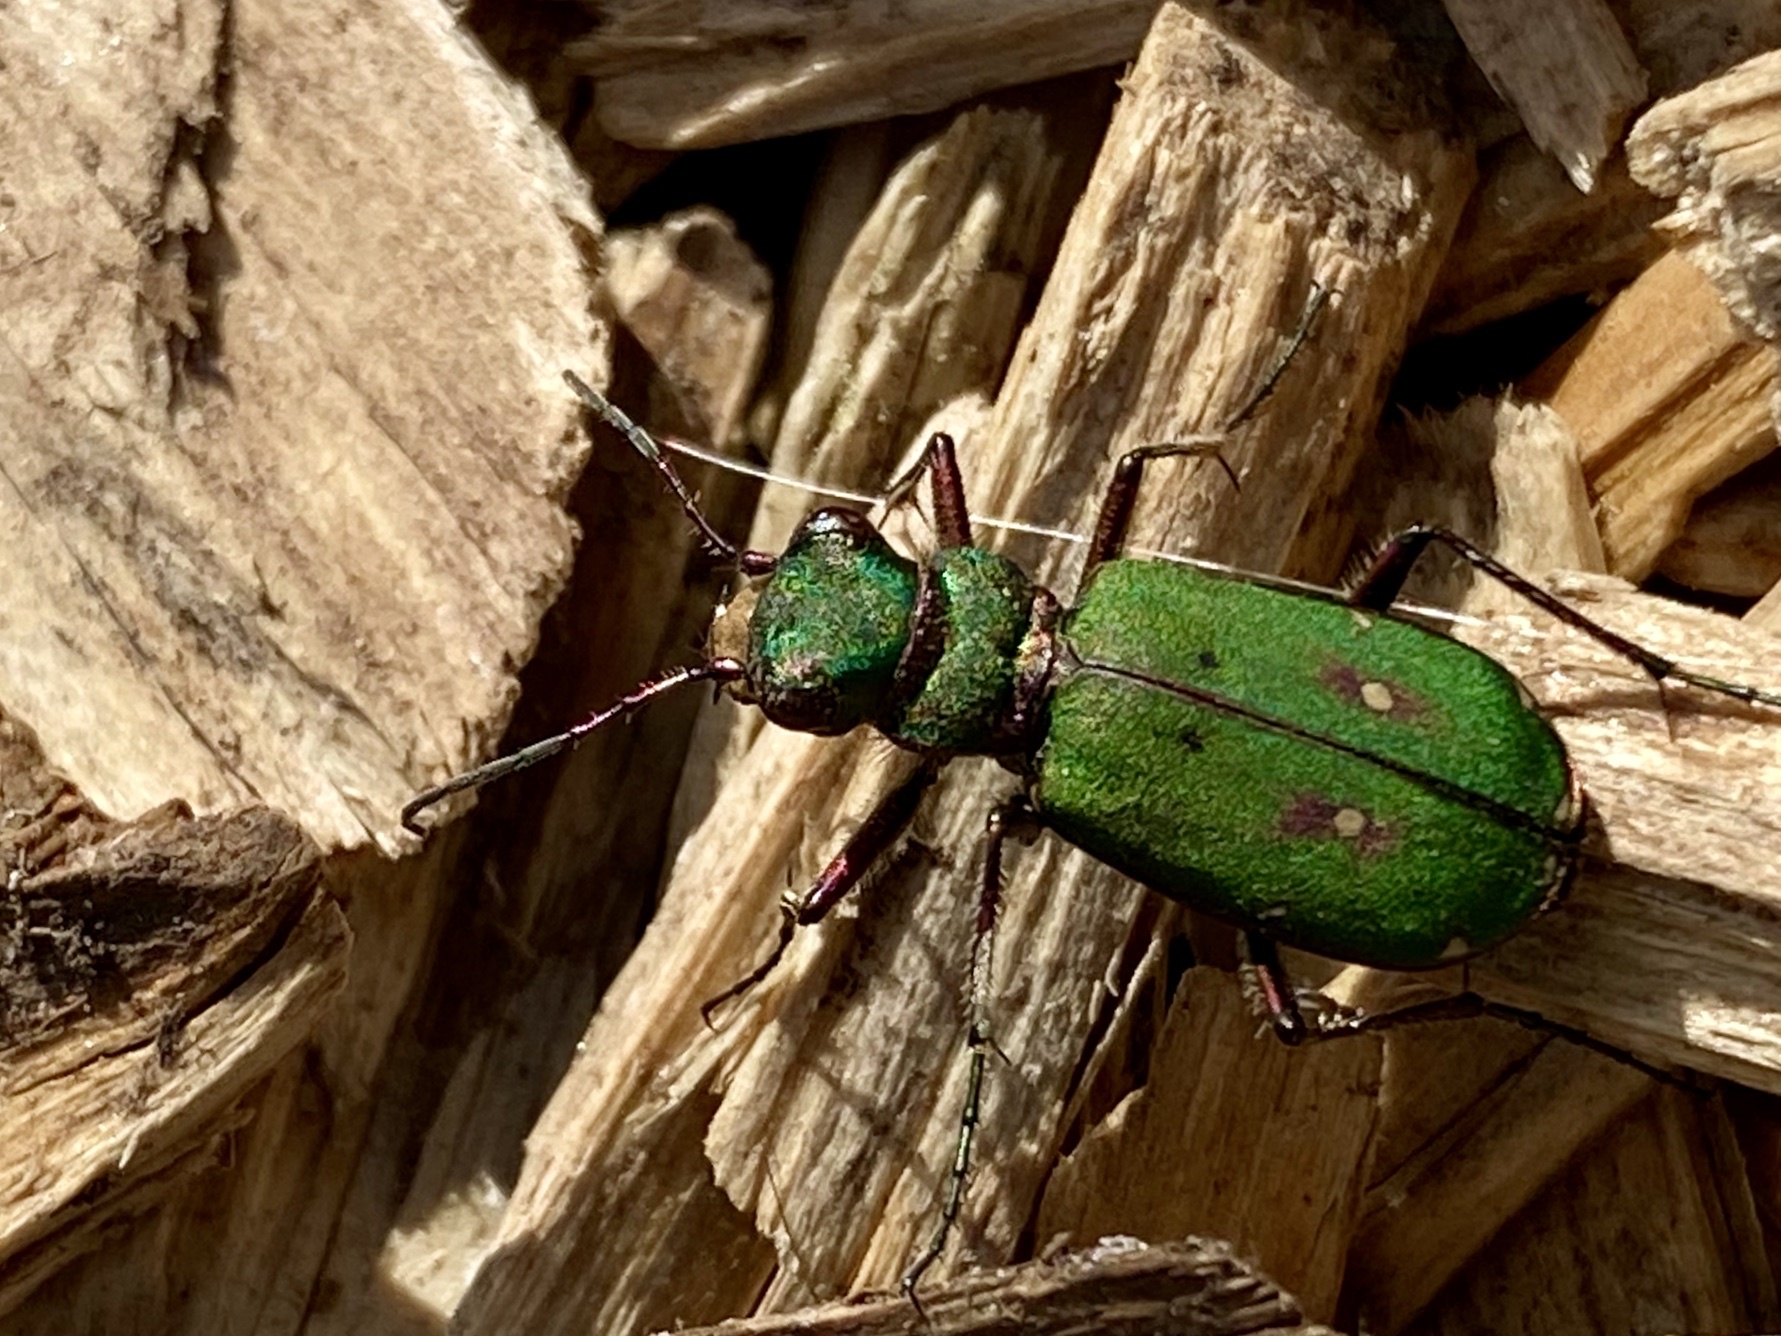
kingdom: Animalia
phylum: Arthropoda
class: Insecta
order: Coleoptera
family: Carabidae
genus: Cicindela
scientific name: Cicindela campestris
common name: Common tiger beetle
